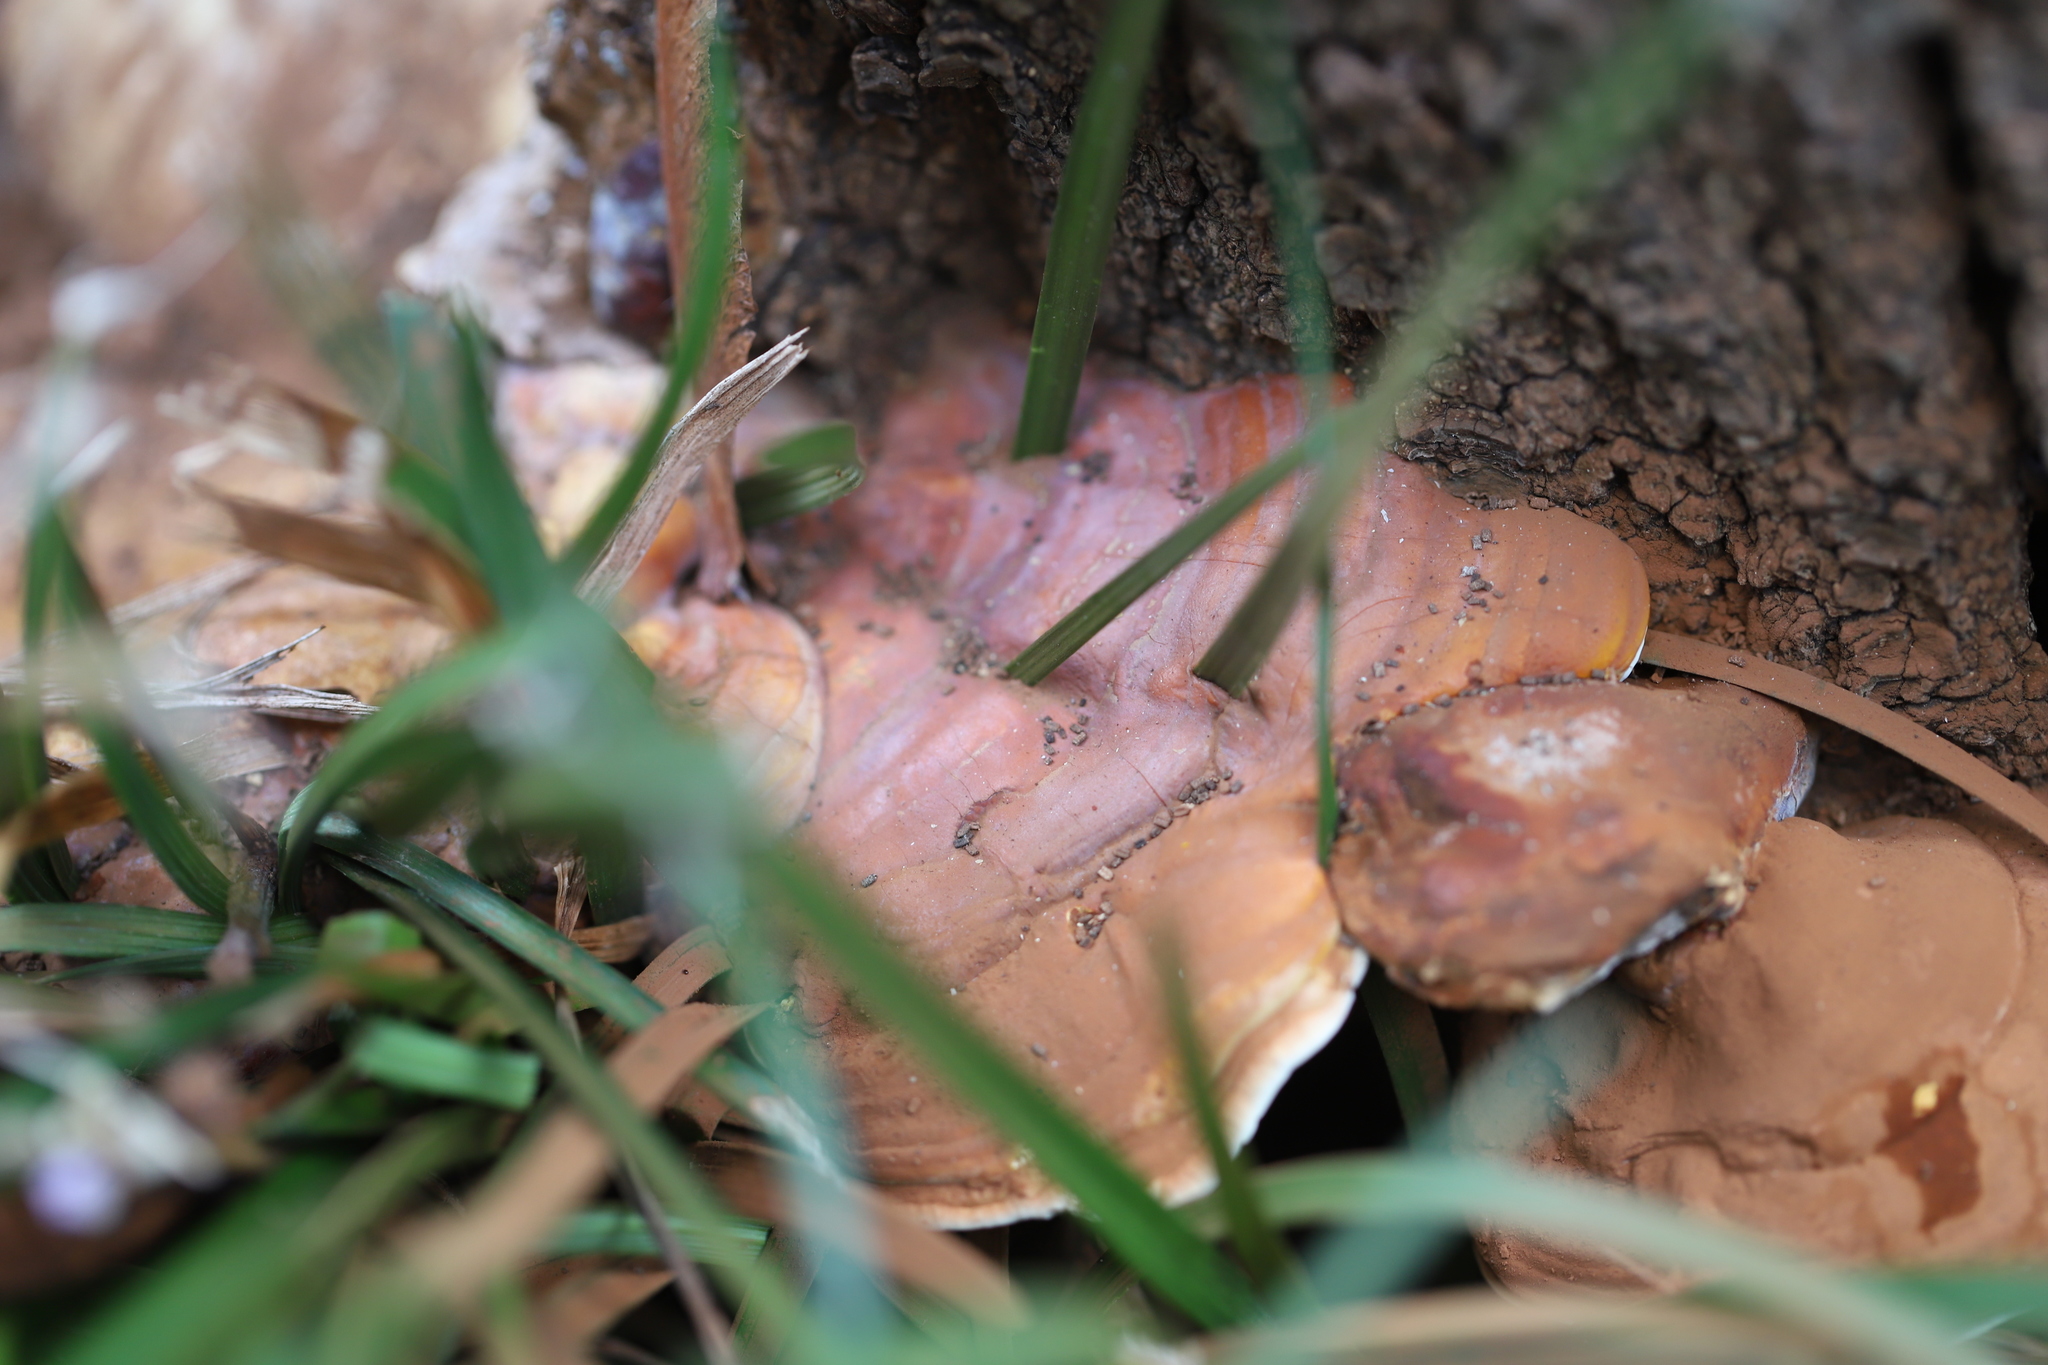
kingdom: Fungi
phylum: Basidiomycota
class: Agaricomycetes
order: Polyporales
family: Polyporaceae
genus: Ganoderma
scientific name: Ganoderma curtisii
